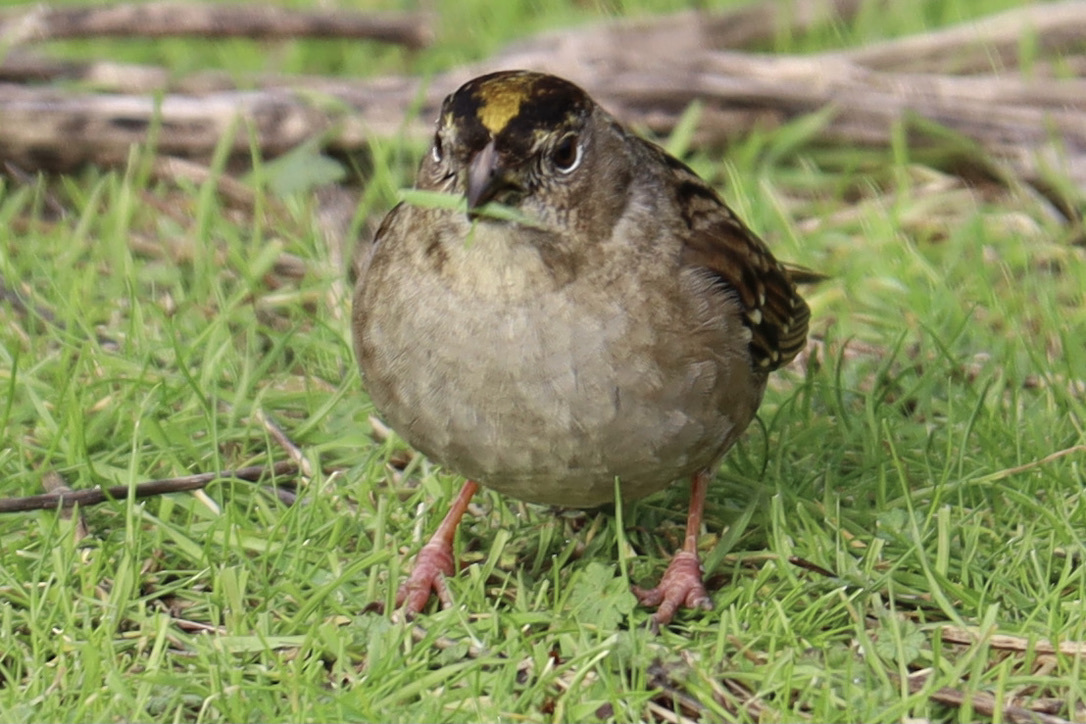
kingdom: Animalia
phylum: Chordata
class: Aves
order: Passeriformes
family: Passerellidae
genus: Zonotrichia
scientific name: Zonotrichia atricapilla
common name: Golden-crowned sparrow
